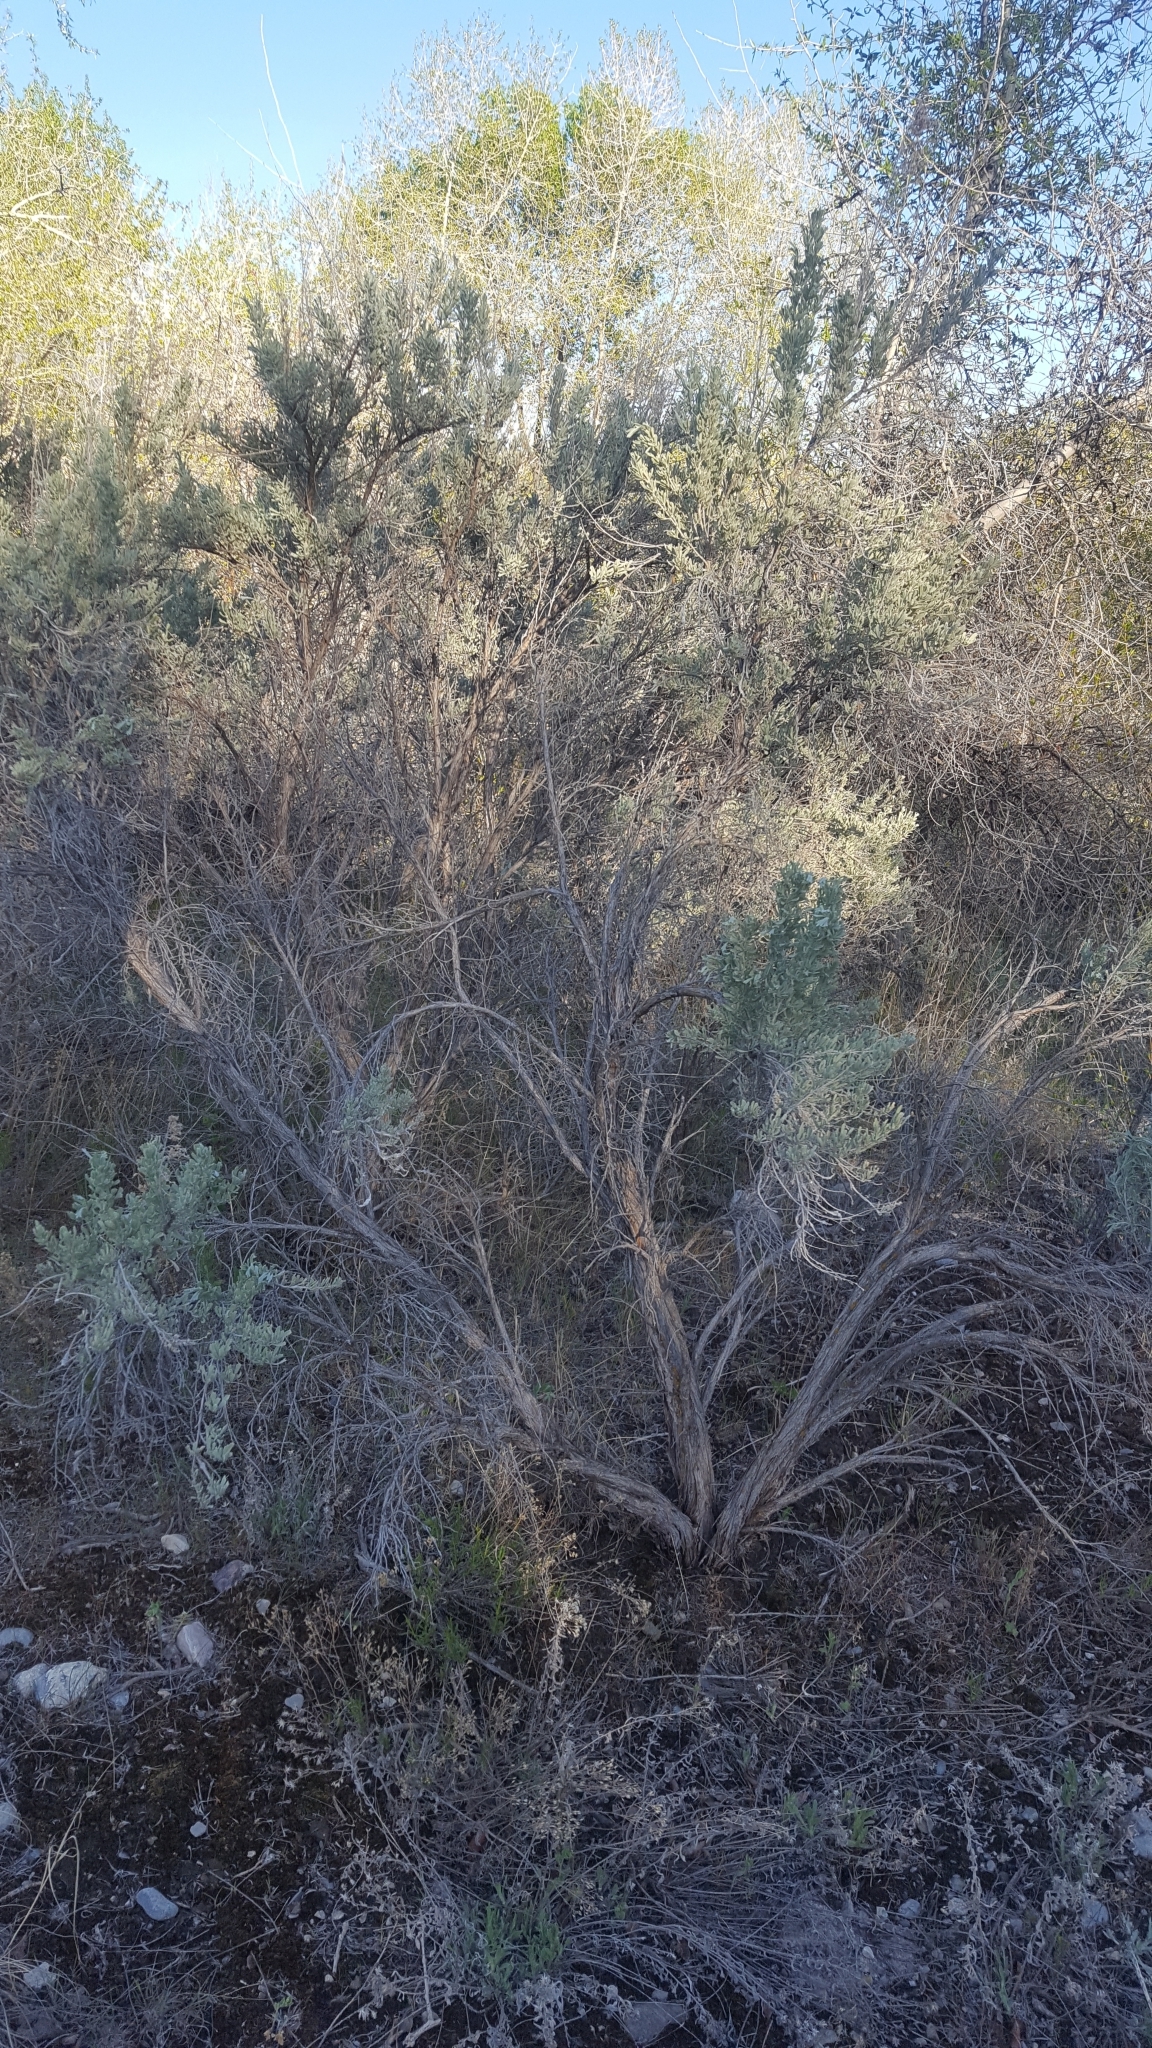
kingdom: Plantae
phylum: Tracheophyta
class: Magnoliopsida
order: Asterales
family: Asteraceae
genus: Artemisia
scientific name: Artemisia tridentata
